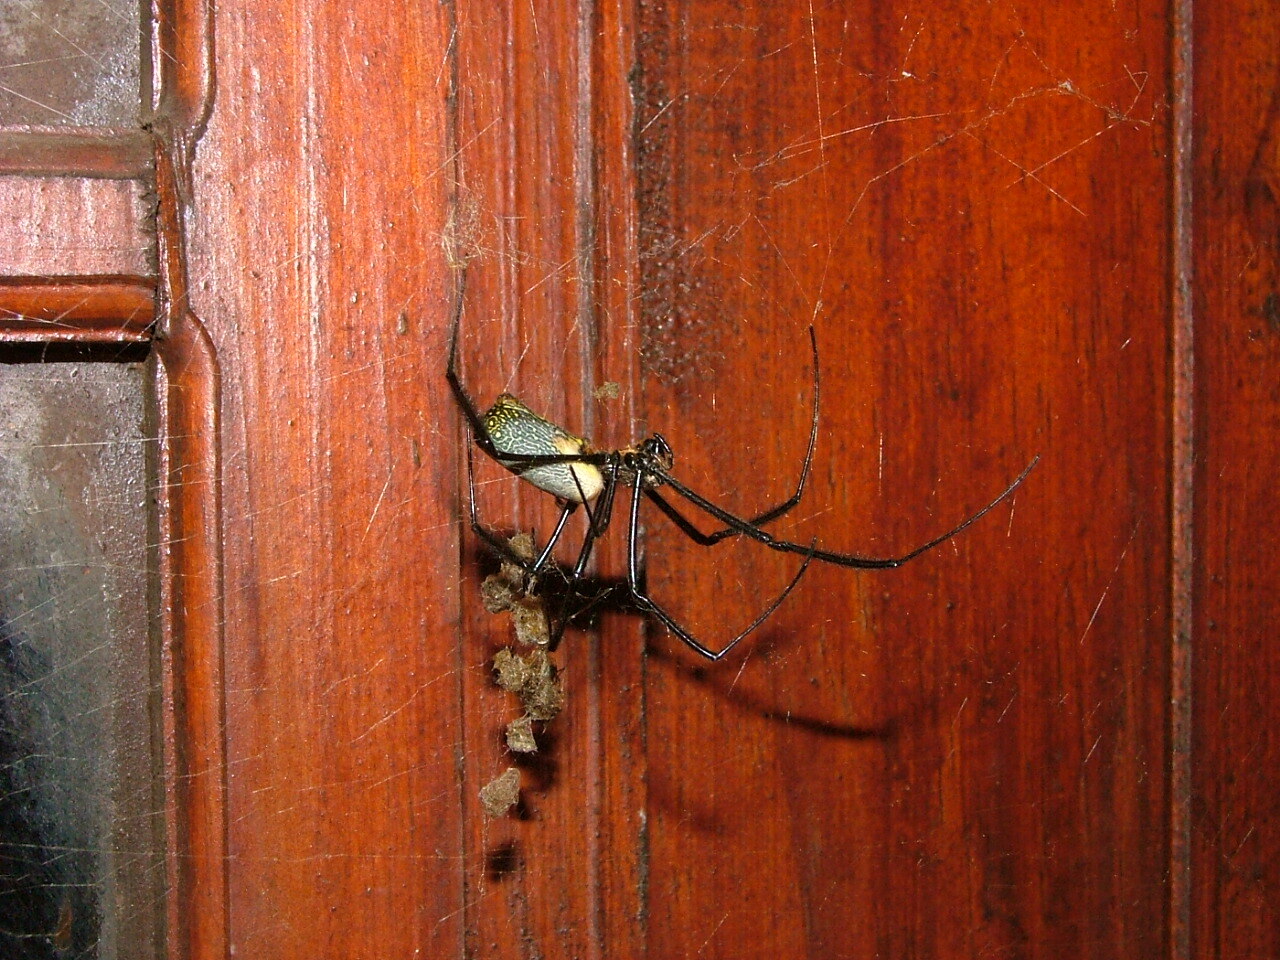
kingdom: Animalia
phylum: Arthropoda
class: Arachnida
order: Araneae
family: Araneidae
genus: Trichonephila
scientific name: Trichonephila fenestrata
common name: Hairy golden orb weaver
